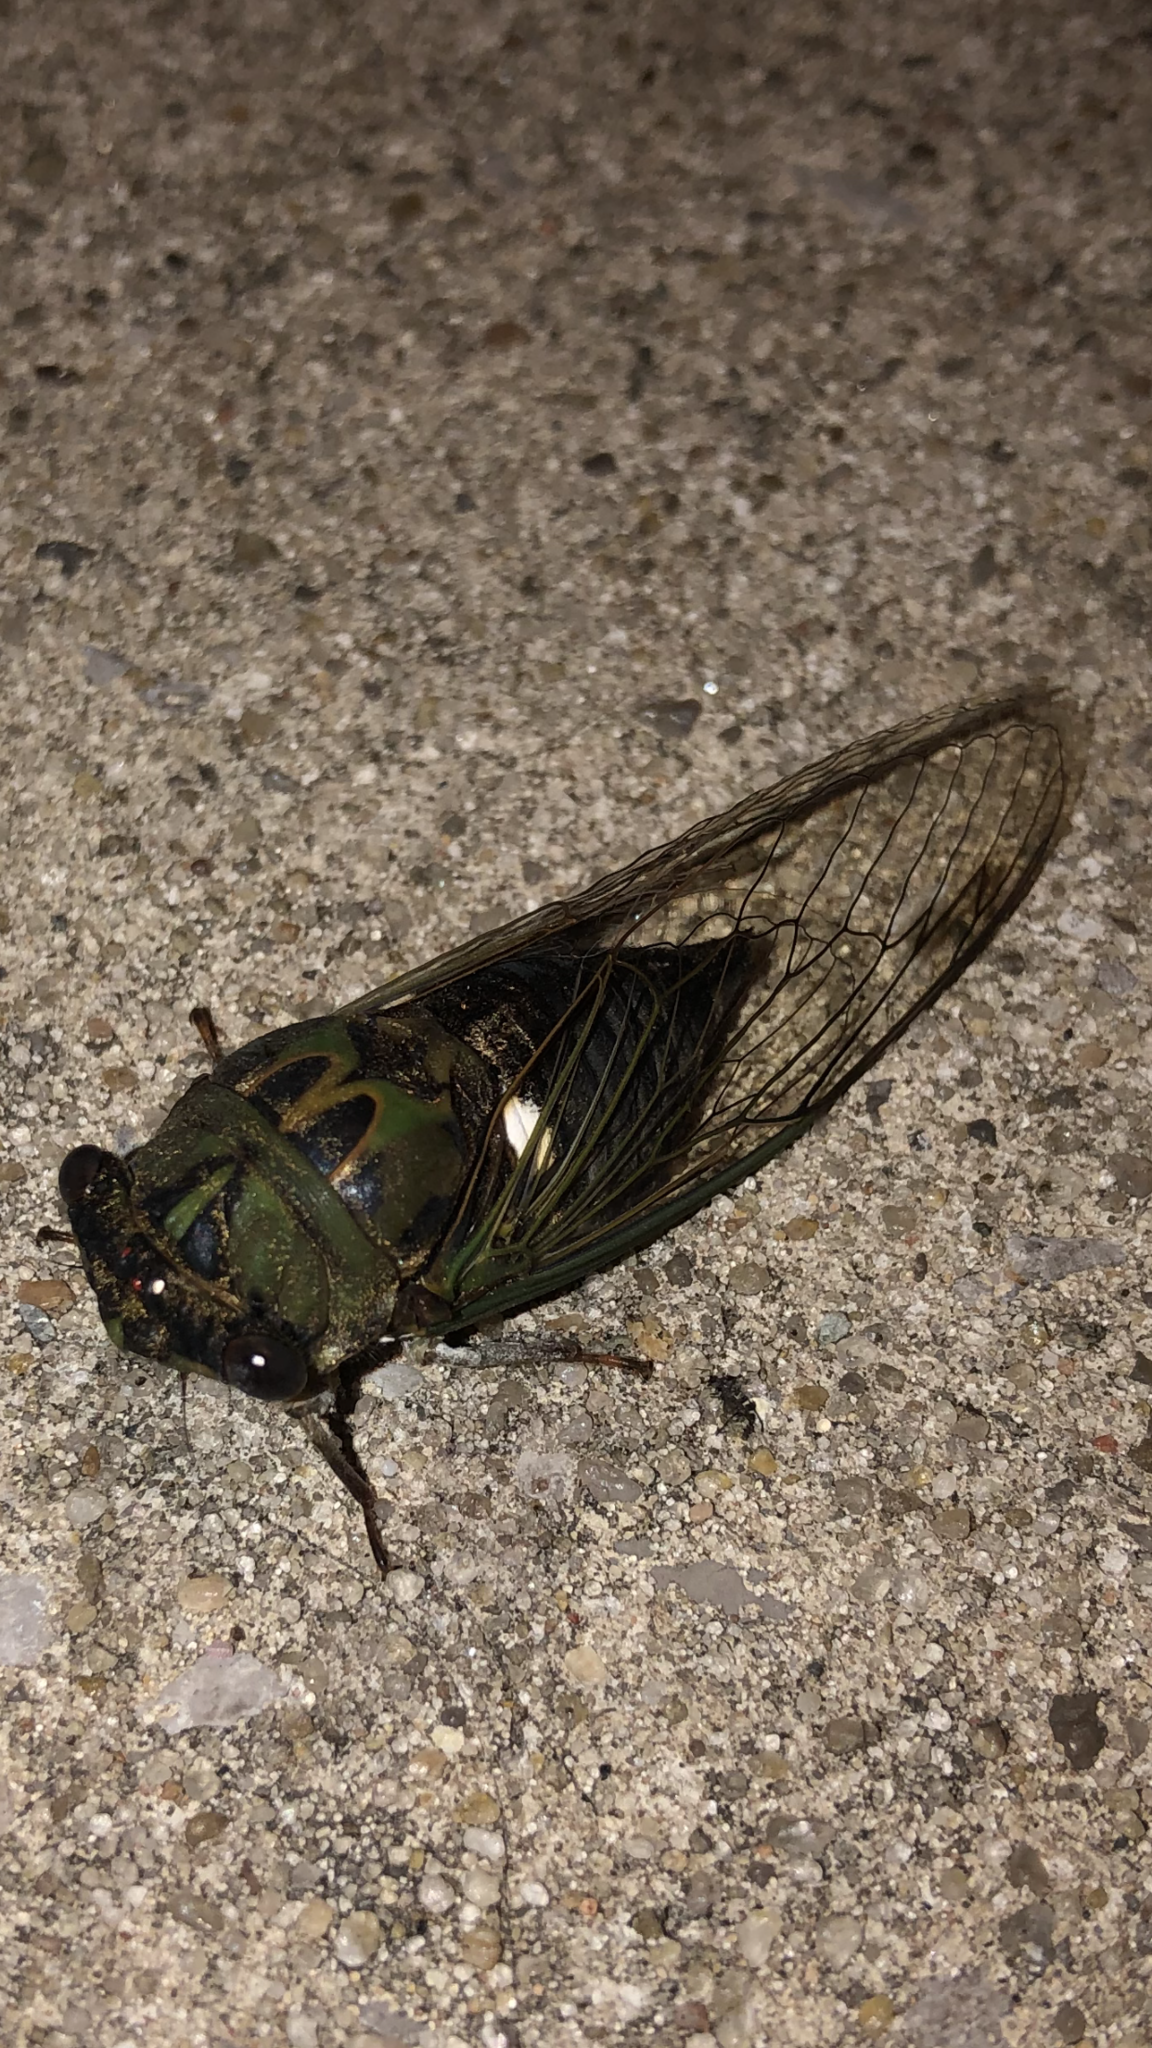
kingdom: Animalia
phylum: Arthropoda
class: Insecta
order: Hemiptera
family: Cicadidae
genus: Neotibicen
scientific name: Neotibicen pruinosus
